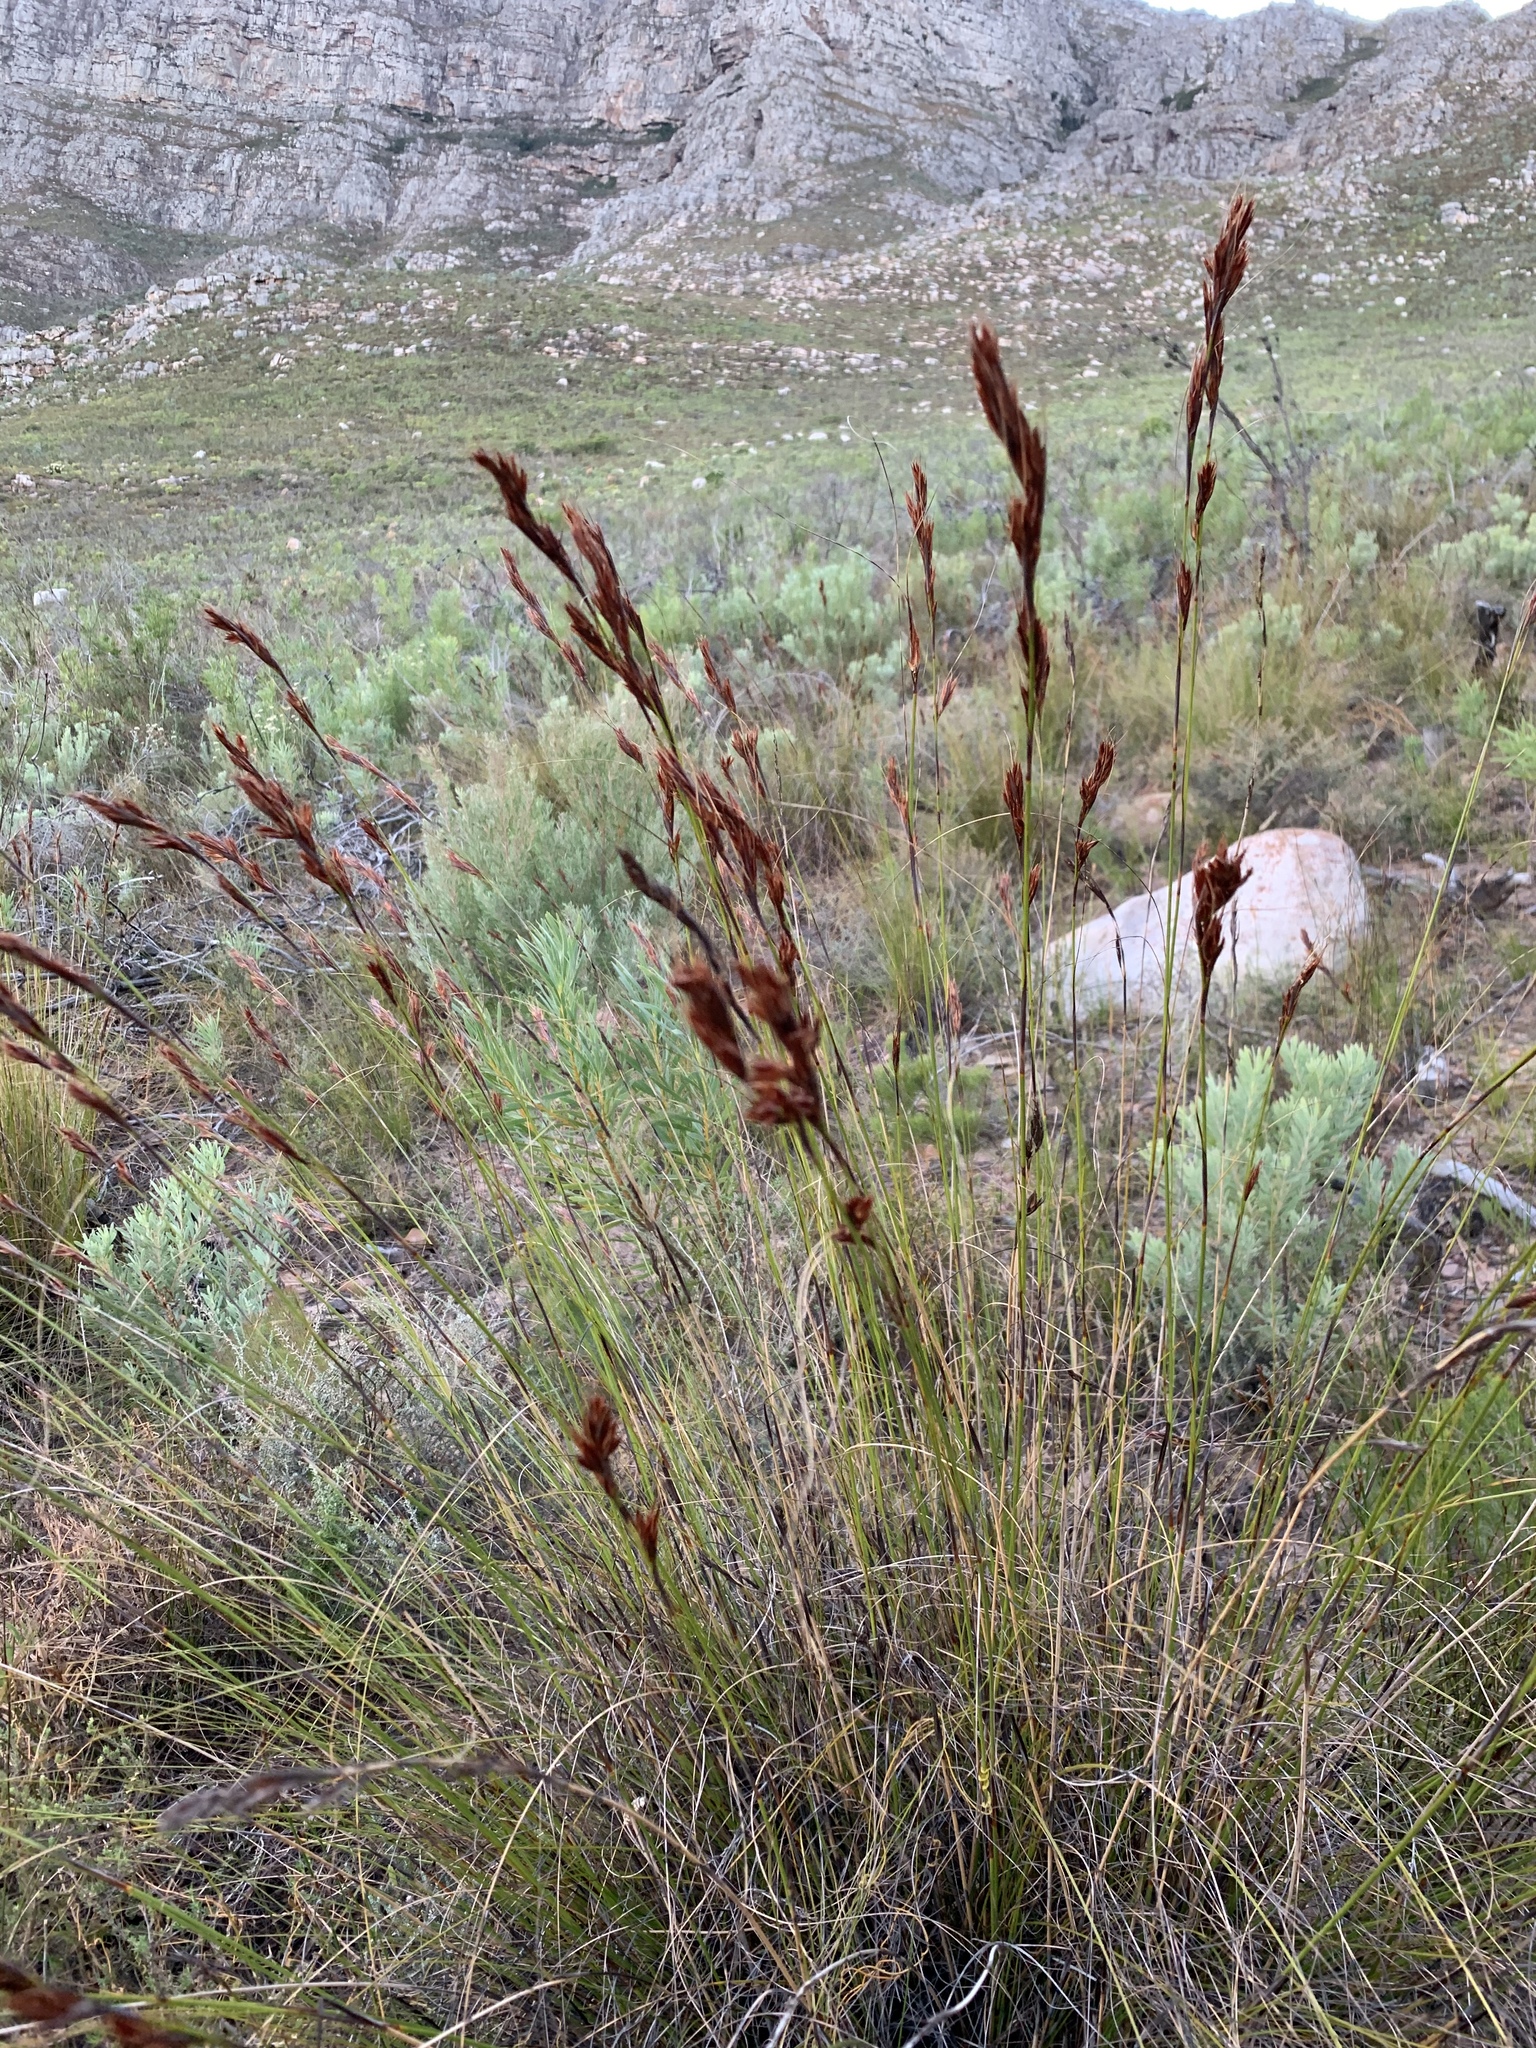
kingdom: Plantae
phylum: Tracheophyta
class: Liliopsida
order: Poales
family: Cyperaceae
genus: Tetraria
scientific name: Tetraria ustulata
